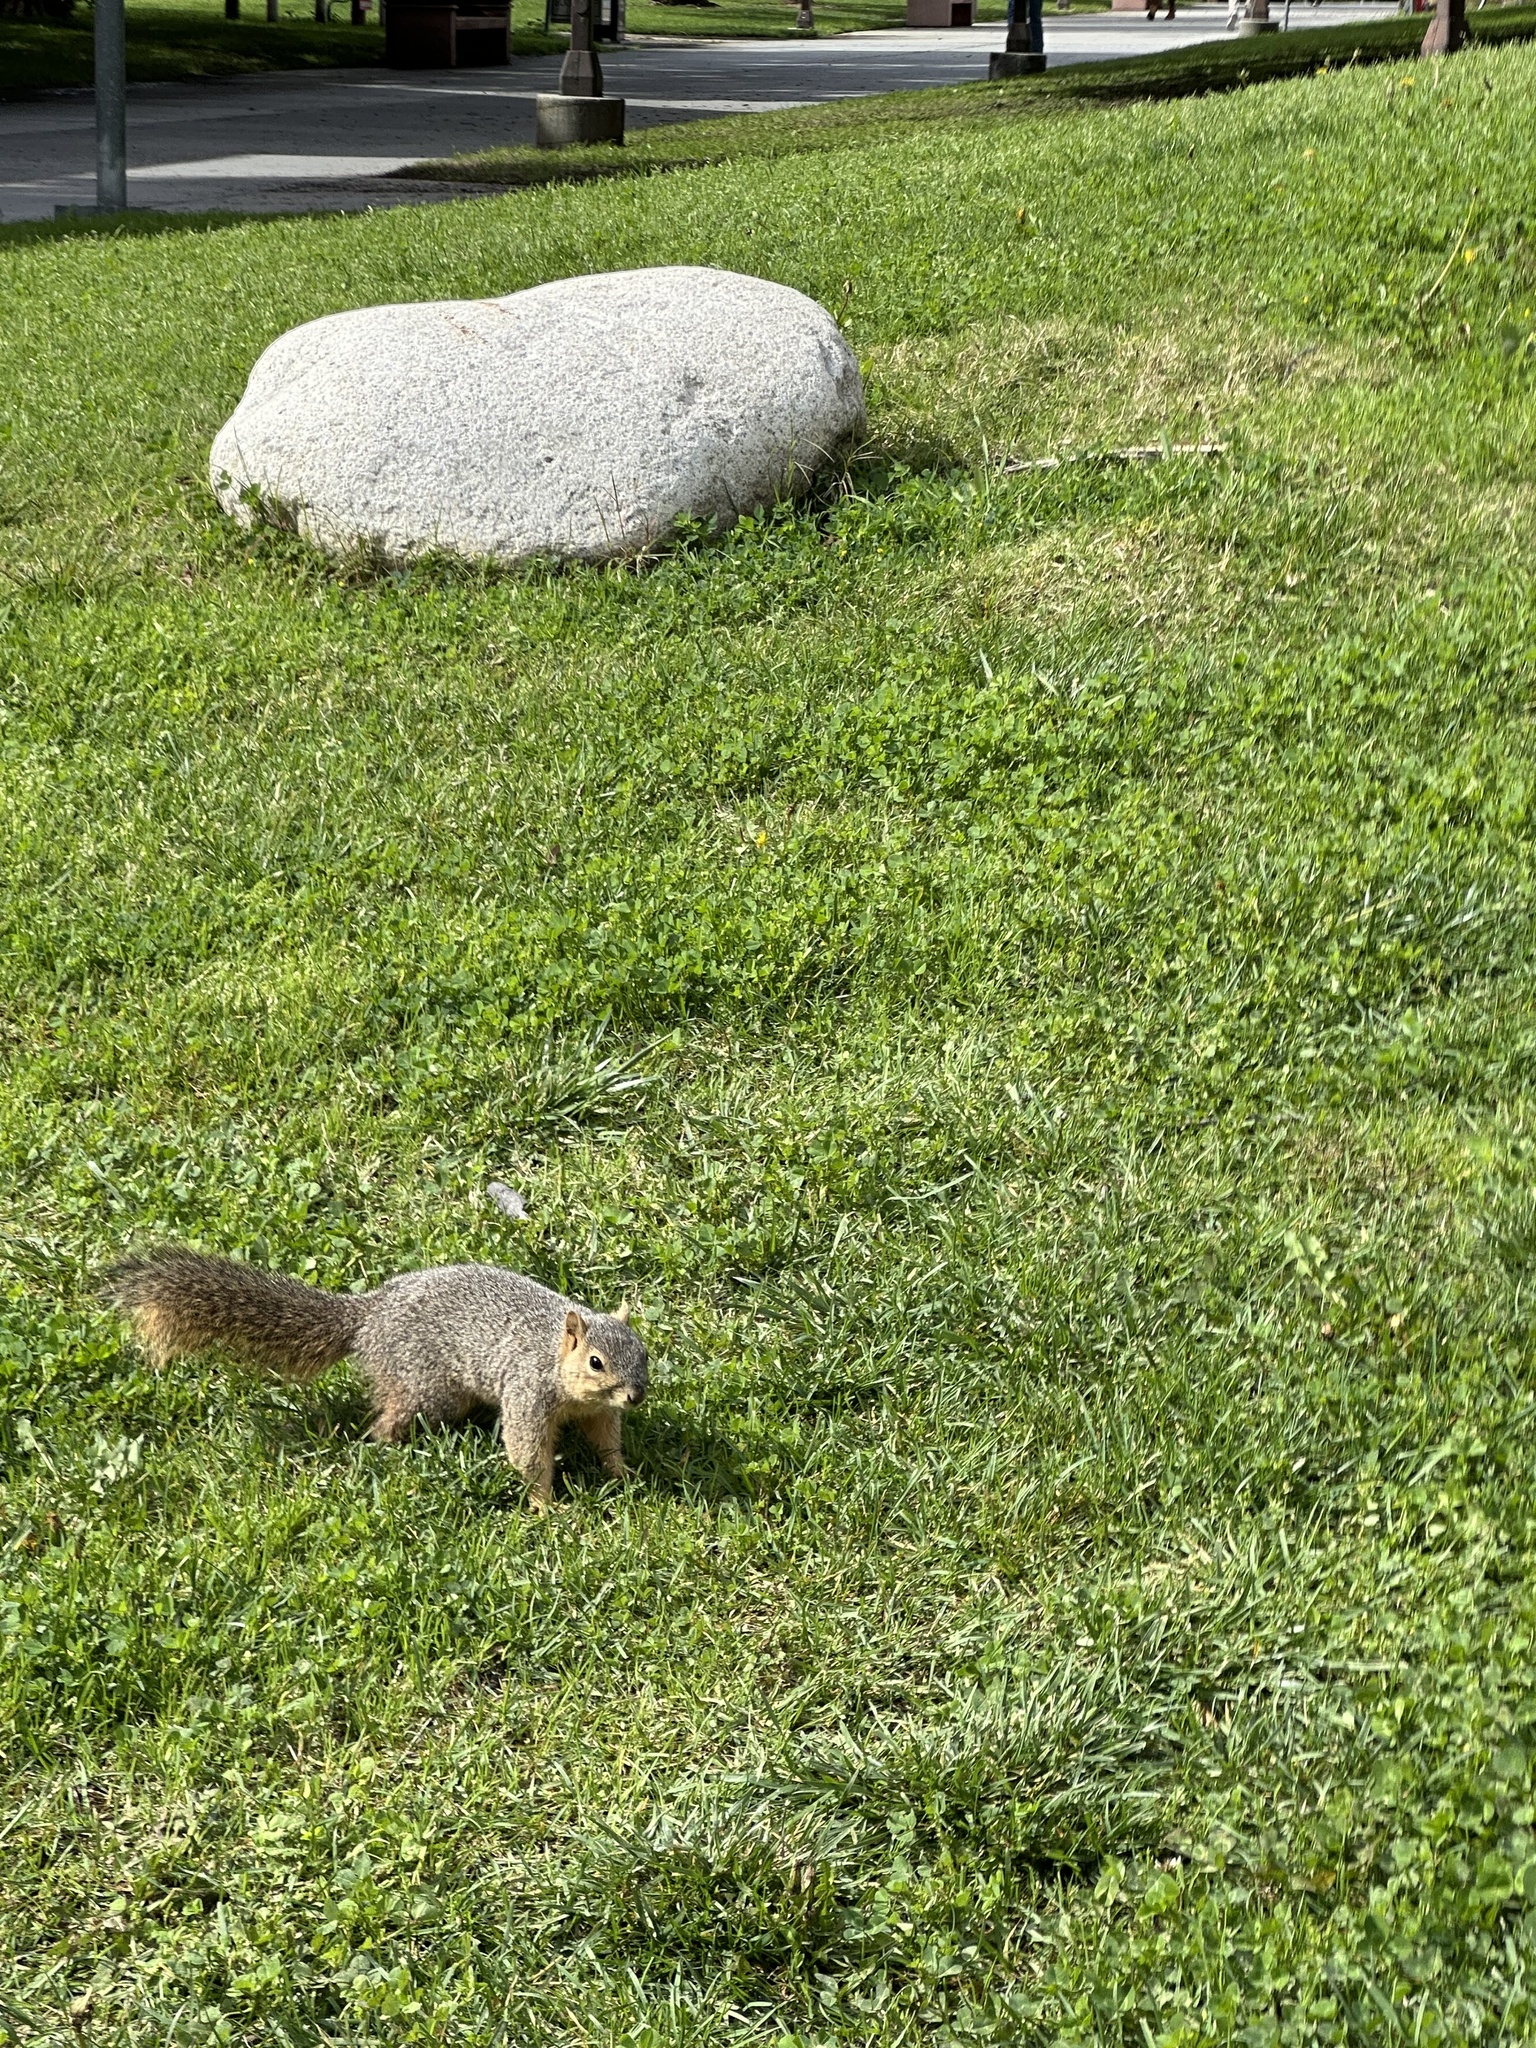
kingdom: Animalia
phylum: Chordata
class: Mammalia
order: Rodentia
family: Sciuridae
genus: Sciurus
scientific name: Sciurus niger
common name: Fox squirrel
